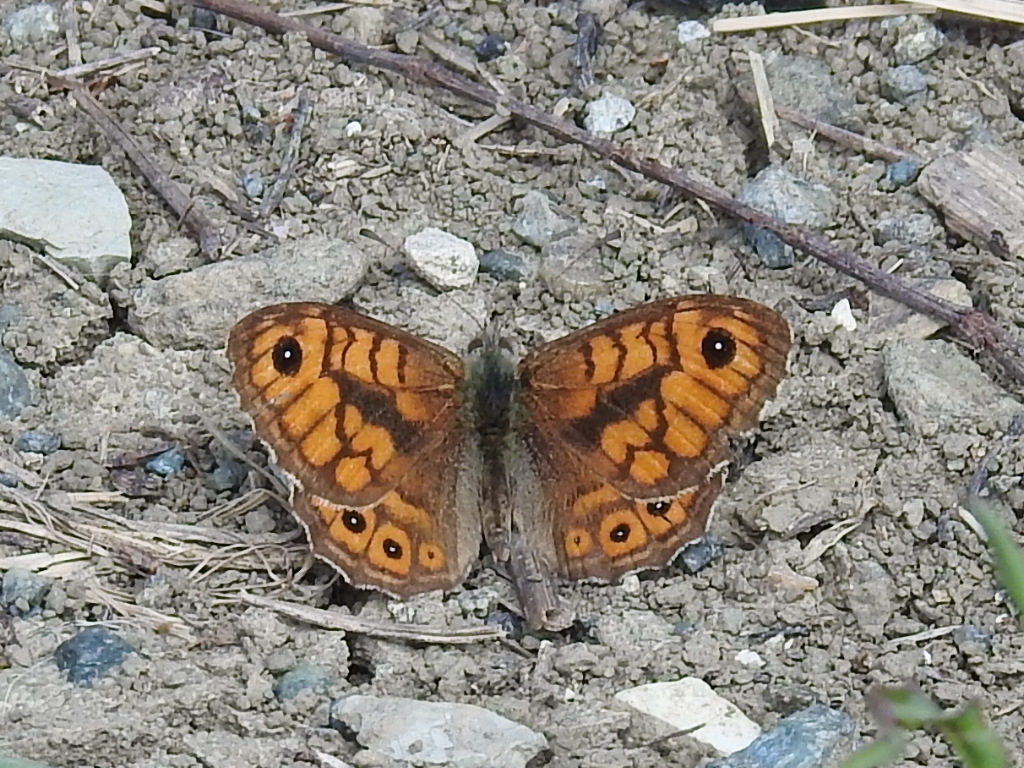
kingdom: Animalia
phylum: Arthropoda
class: Insecta
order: Lepidoptera
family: Nymphalidae
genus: Pararge
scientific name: Pararge Lasiommata megera
